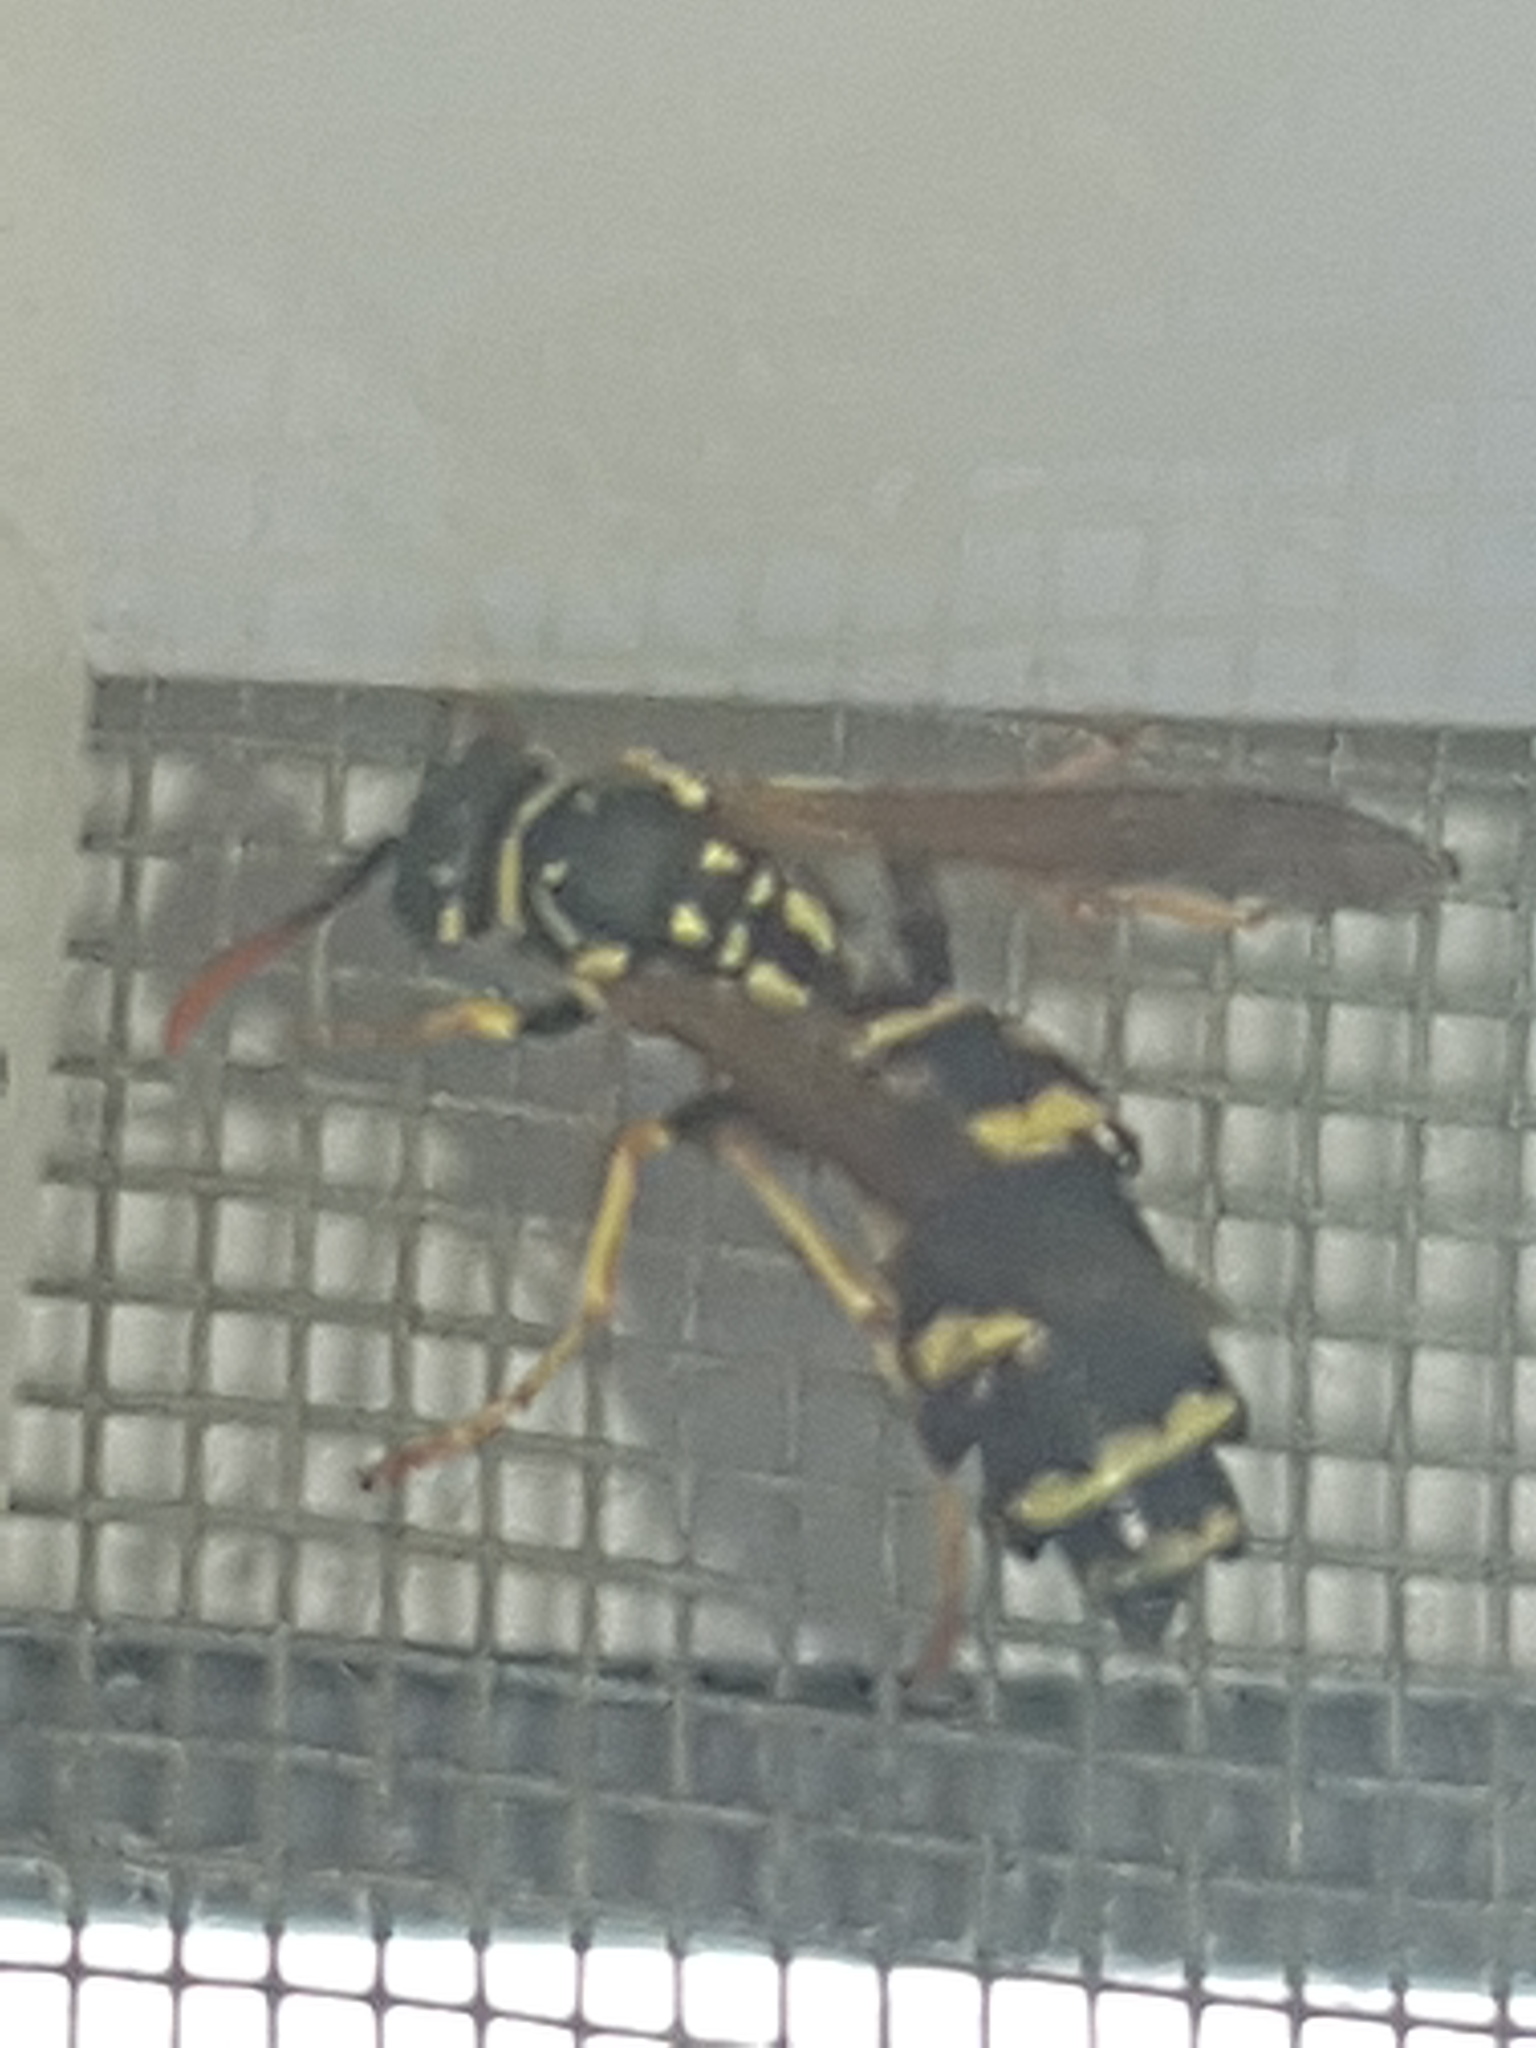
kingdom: Animalia
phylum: Arthropoda
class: Insecta
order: Hymenoptera
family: Eumenidae
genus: Polistes
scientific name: Polistes dominula
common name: Paper wasp
